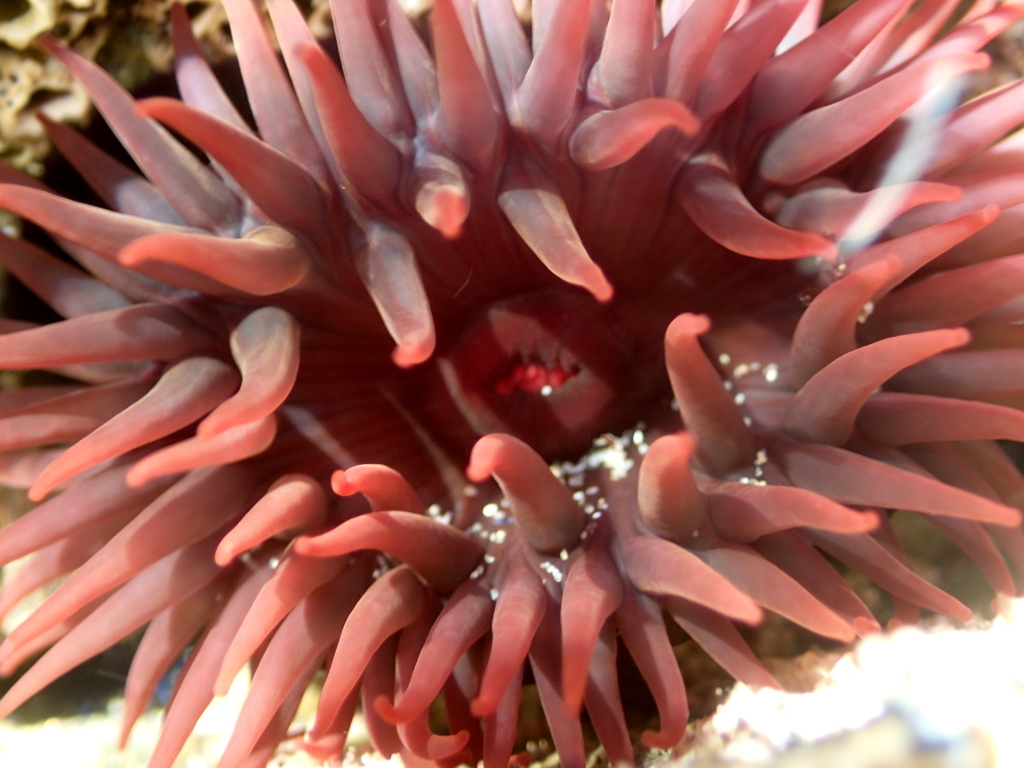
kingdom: Animalia
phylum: Cnidaria
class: Anthozoa
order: Actiniaria
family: Actiniidae
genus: Actinia
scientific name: Actinia tenebrosa
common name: Waratah anemone
